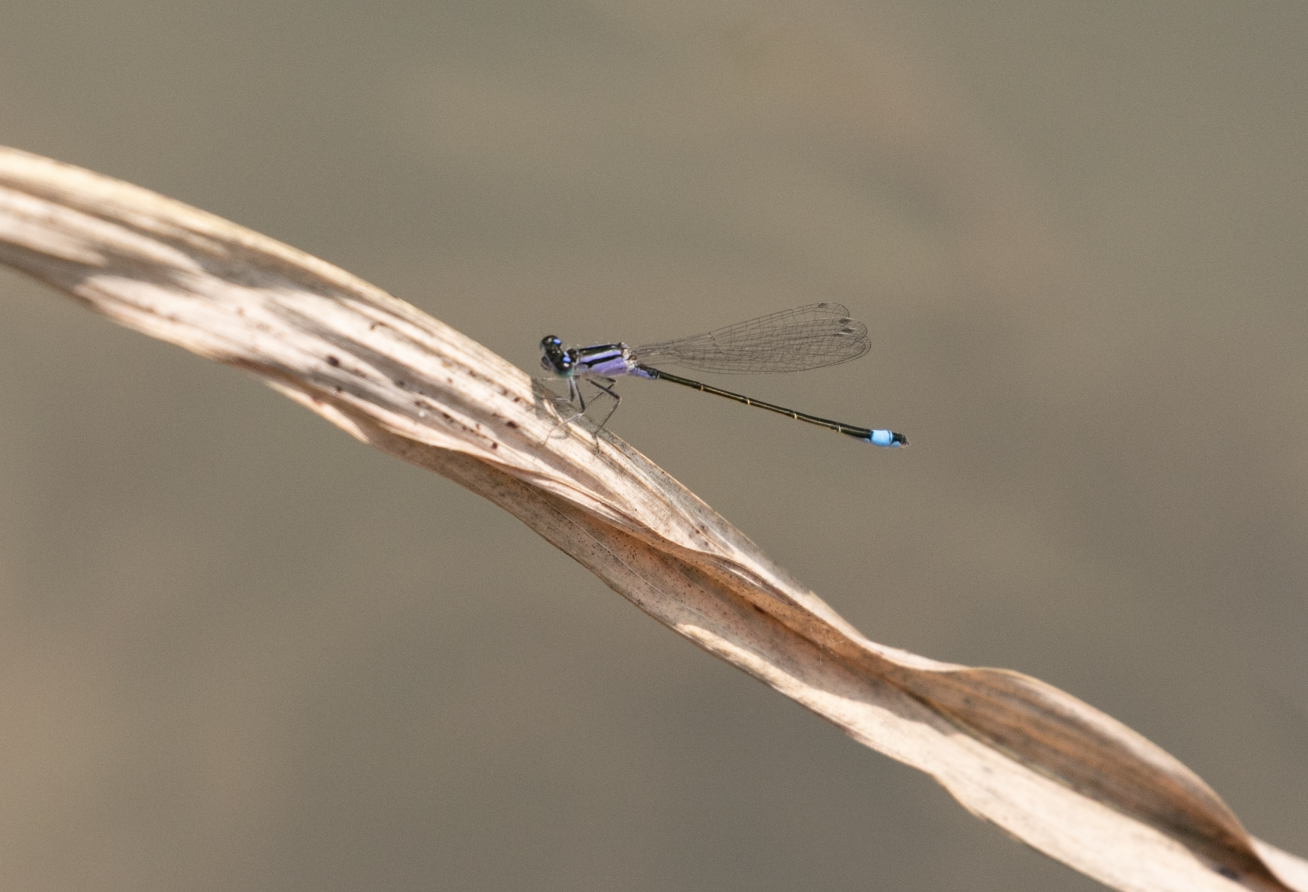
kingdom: Animalia
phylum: Arthropoda
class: Insecta
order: Odonata
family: Coenagrionidae
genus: Ischnura
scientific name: Ischnura elegans
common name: Blue-tailed damselfly
